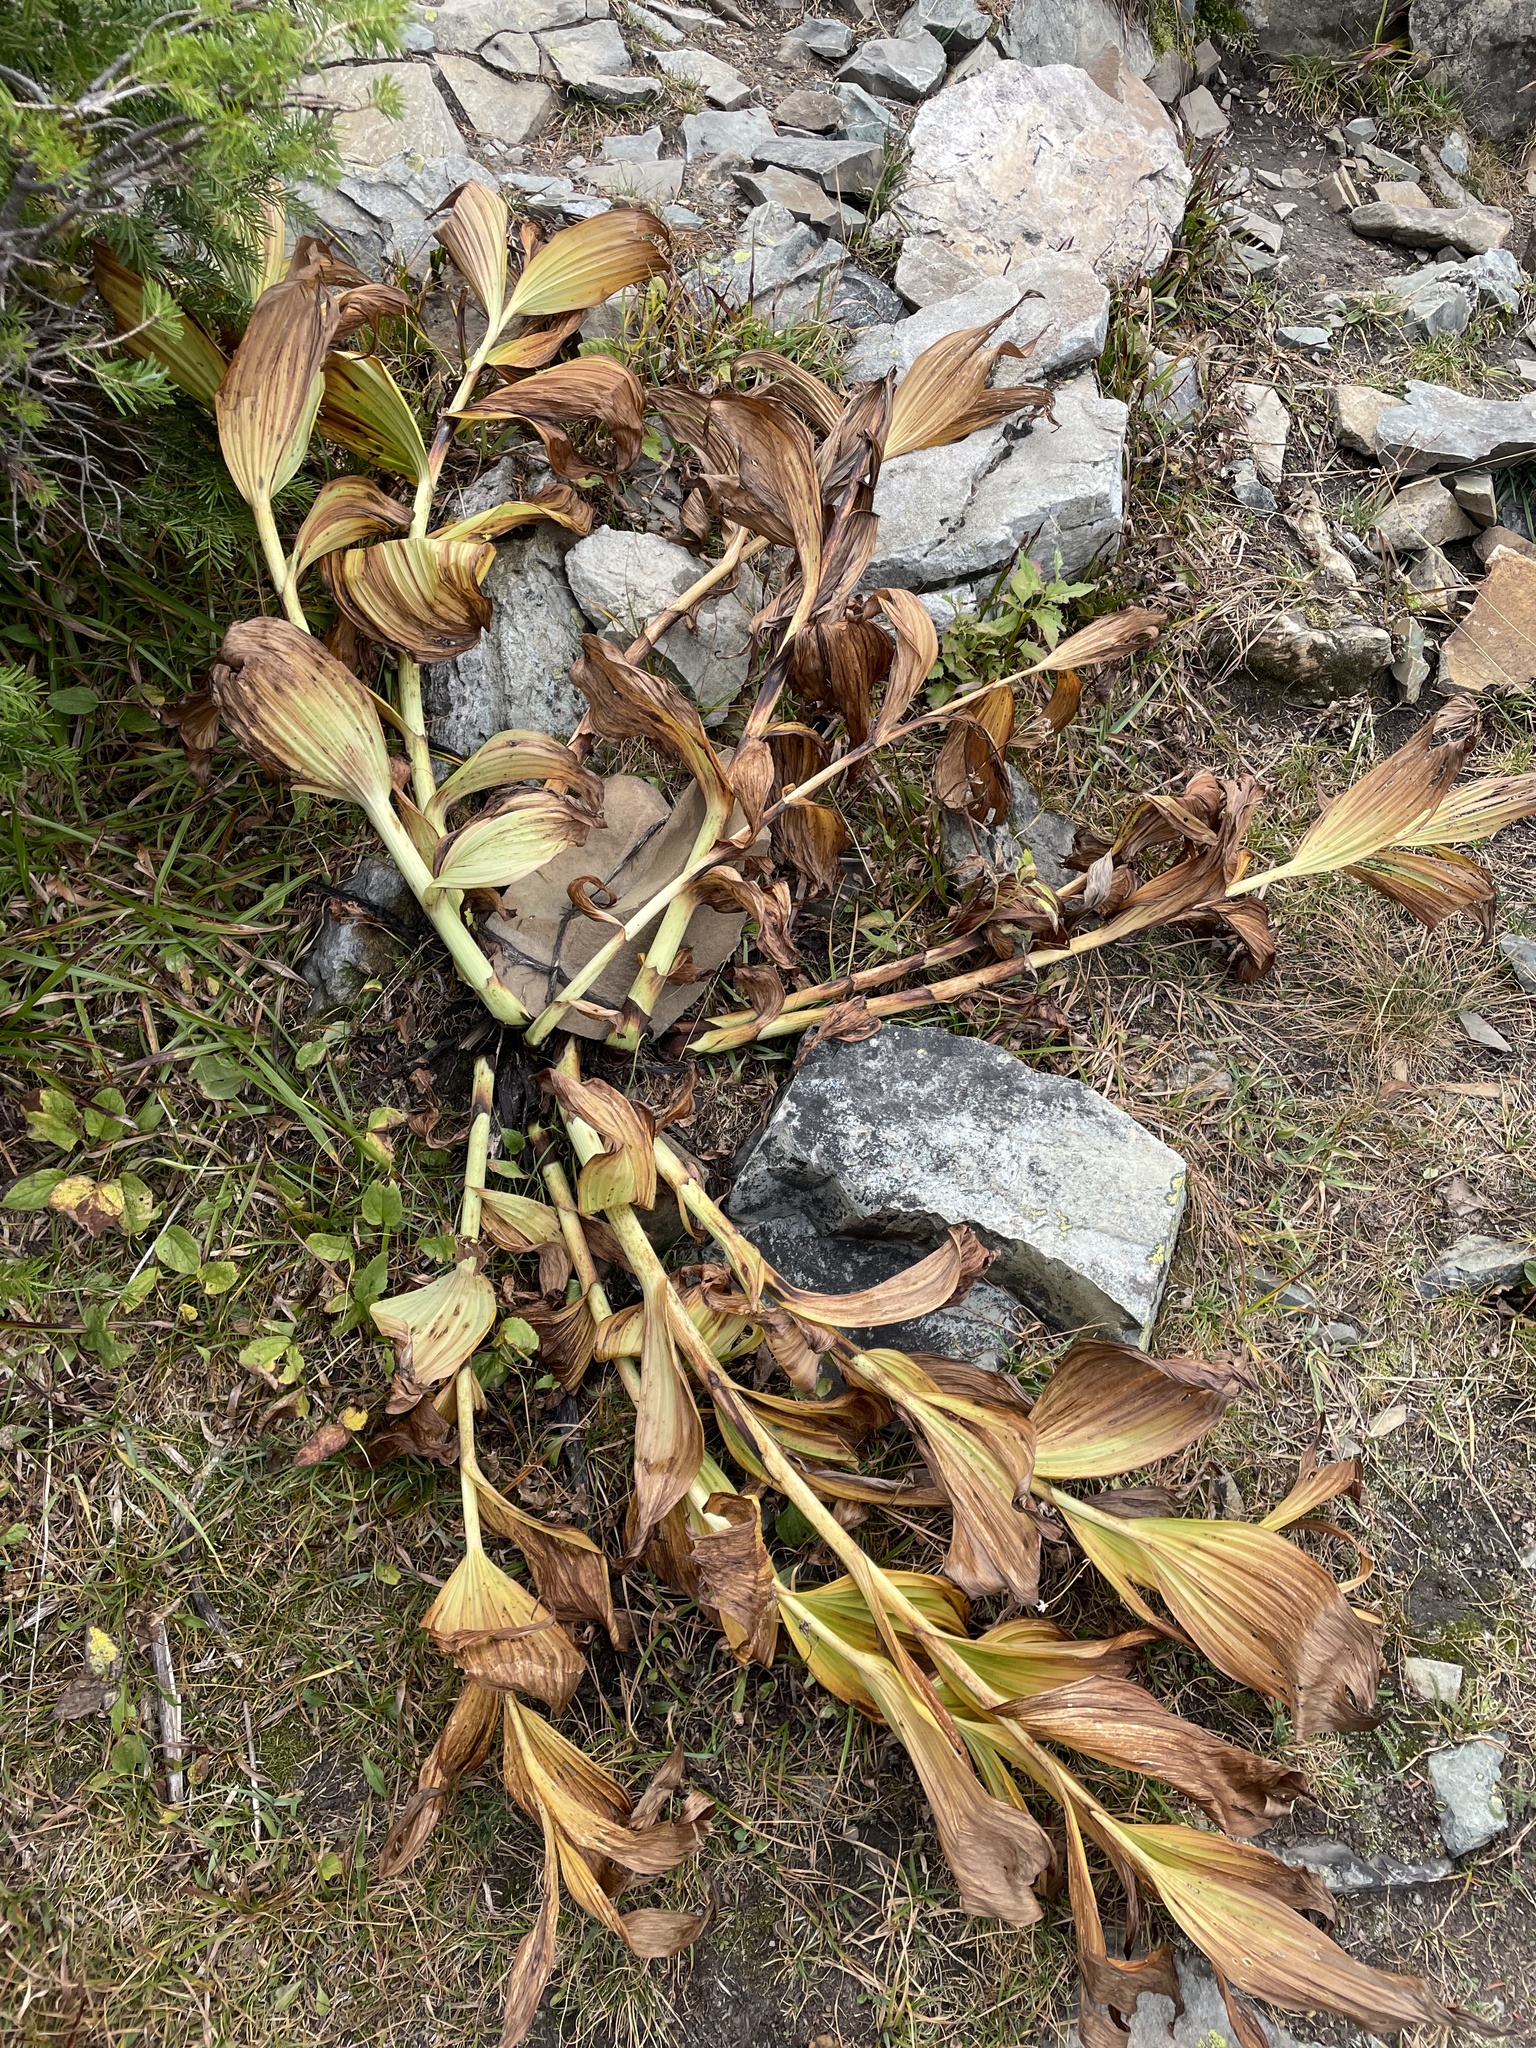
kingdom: Plantae
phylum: Tracheophyta
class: Liliopsida
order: Liliales
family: Melanthiaceae
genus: Veratrum
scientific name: Veratrum viride
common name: American false hellebore
